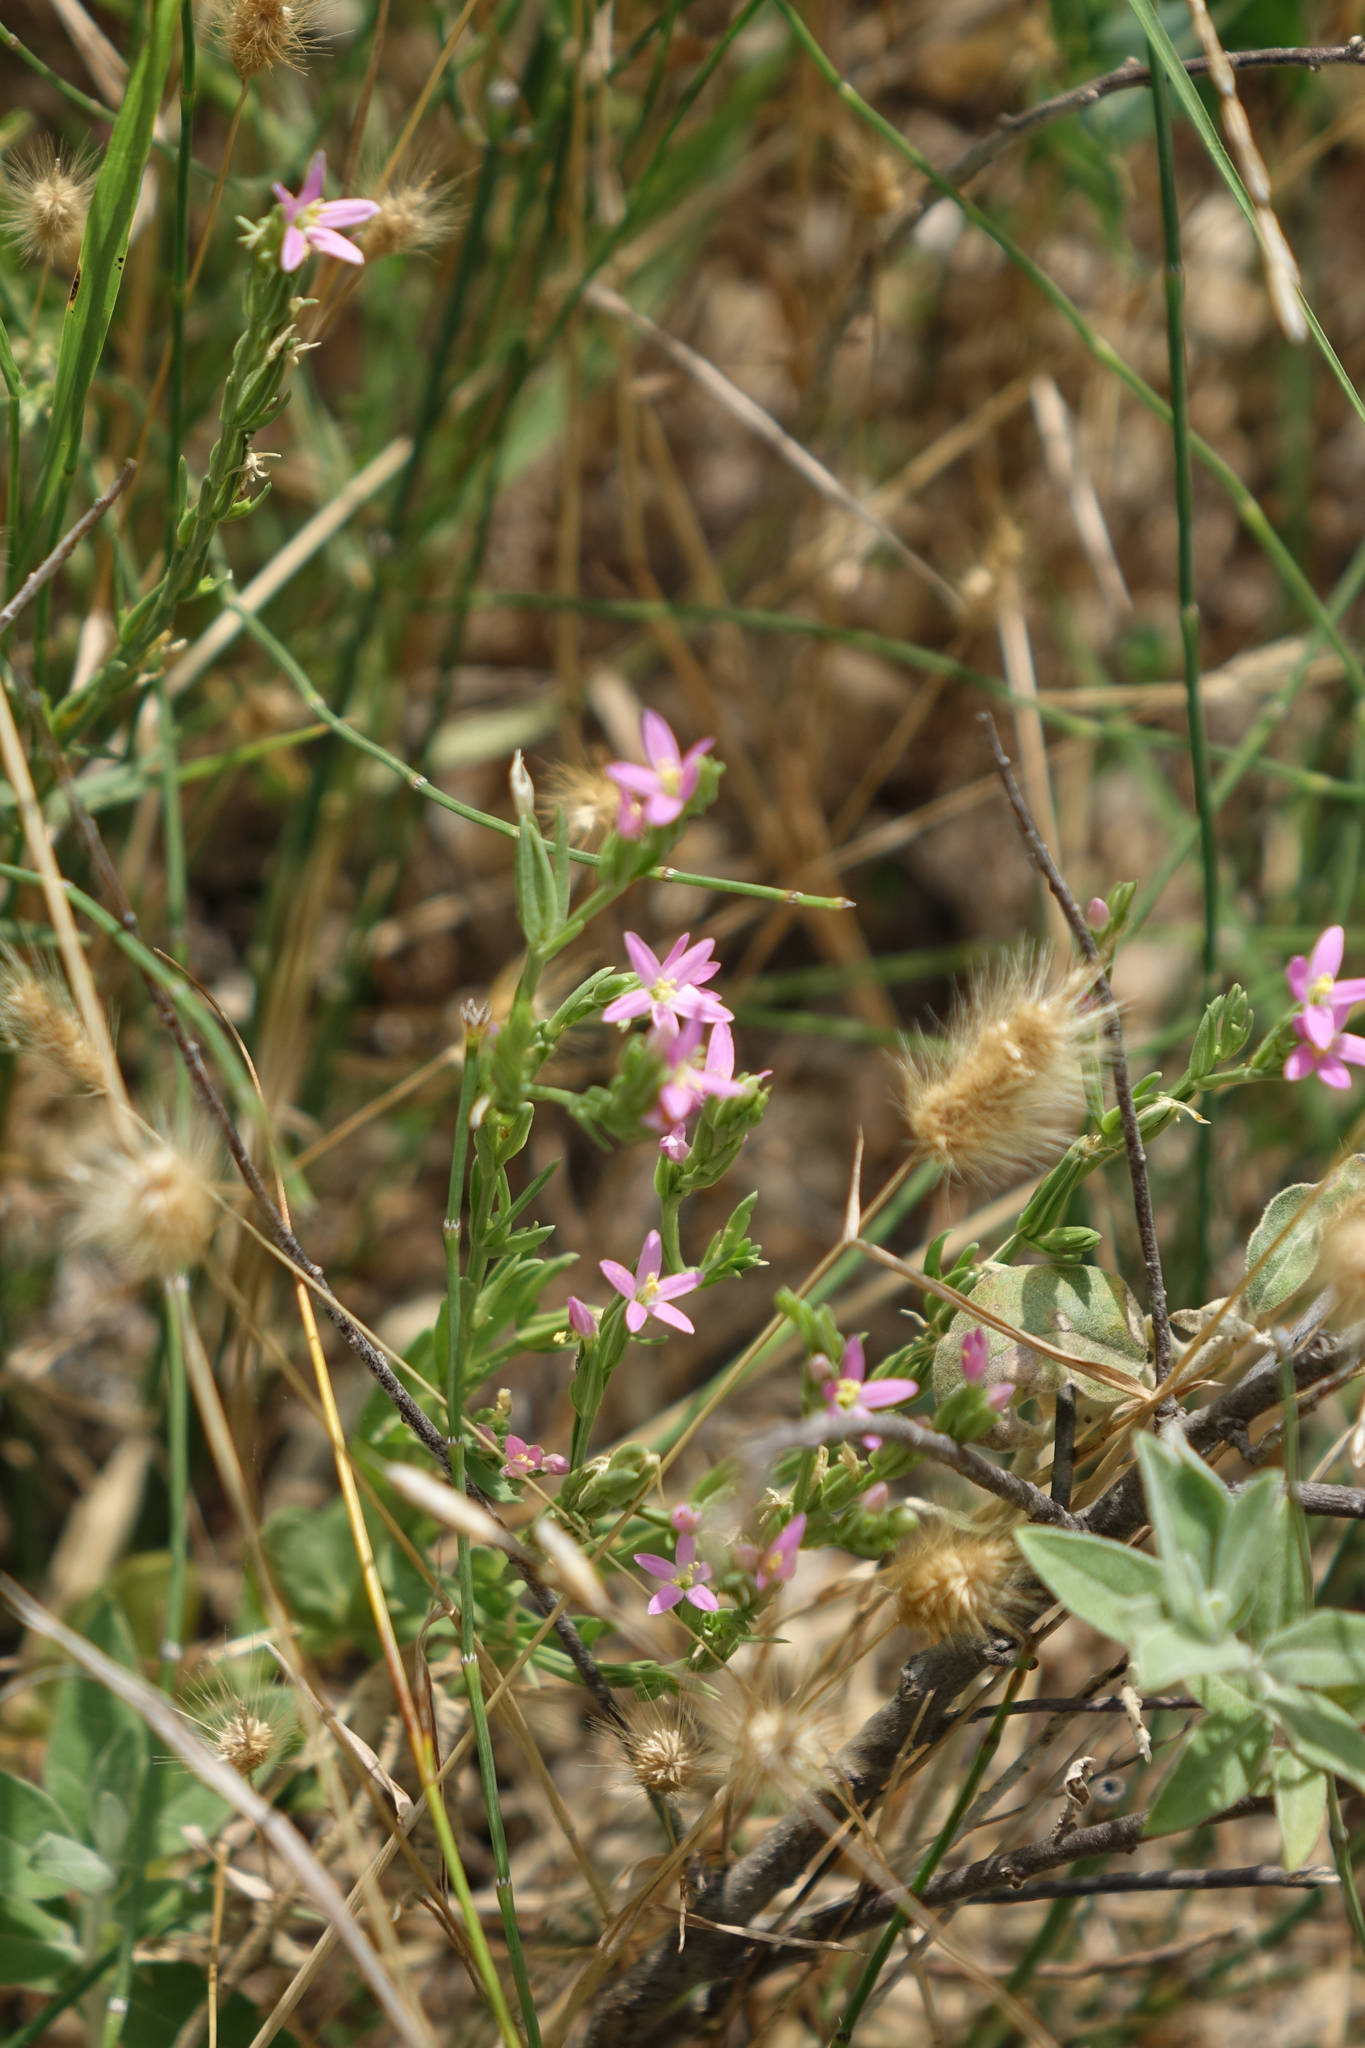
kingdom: Plantae
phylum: Tracheophyta
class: Magnoliopsida
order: Gentianales
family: Gentianaceae
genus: Schenkia
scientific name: Schenkia spicata
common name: Spiked centaury
